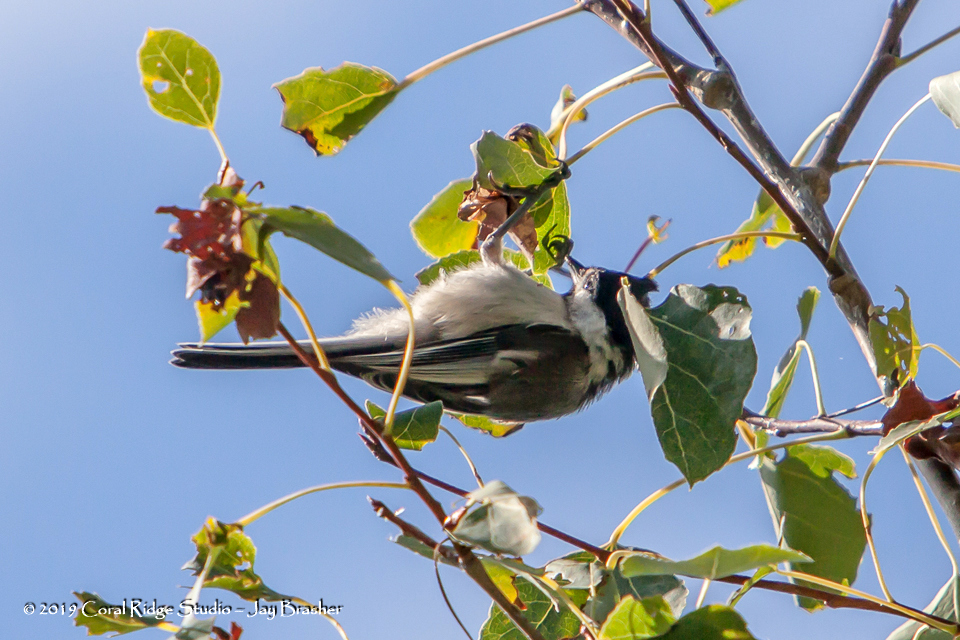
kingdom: Animalia
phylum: Chordata
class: Aves
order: Passeriformes
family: Paridae
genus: Poecile
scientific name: Poecile atricapillus
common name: Black-capped chickadee
